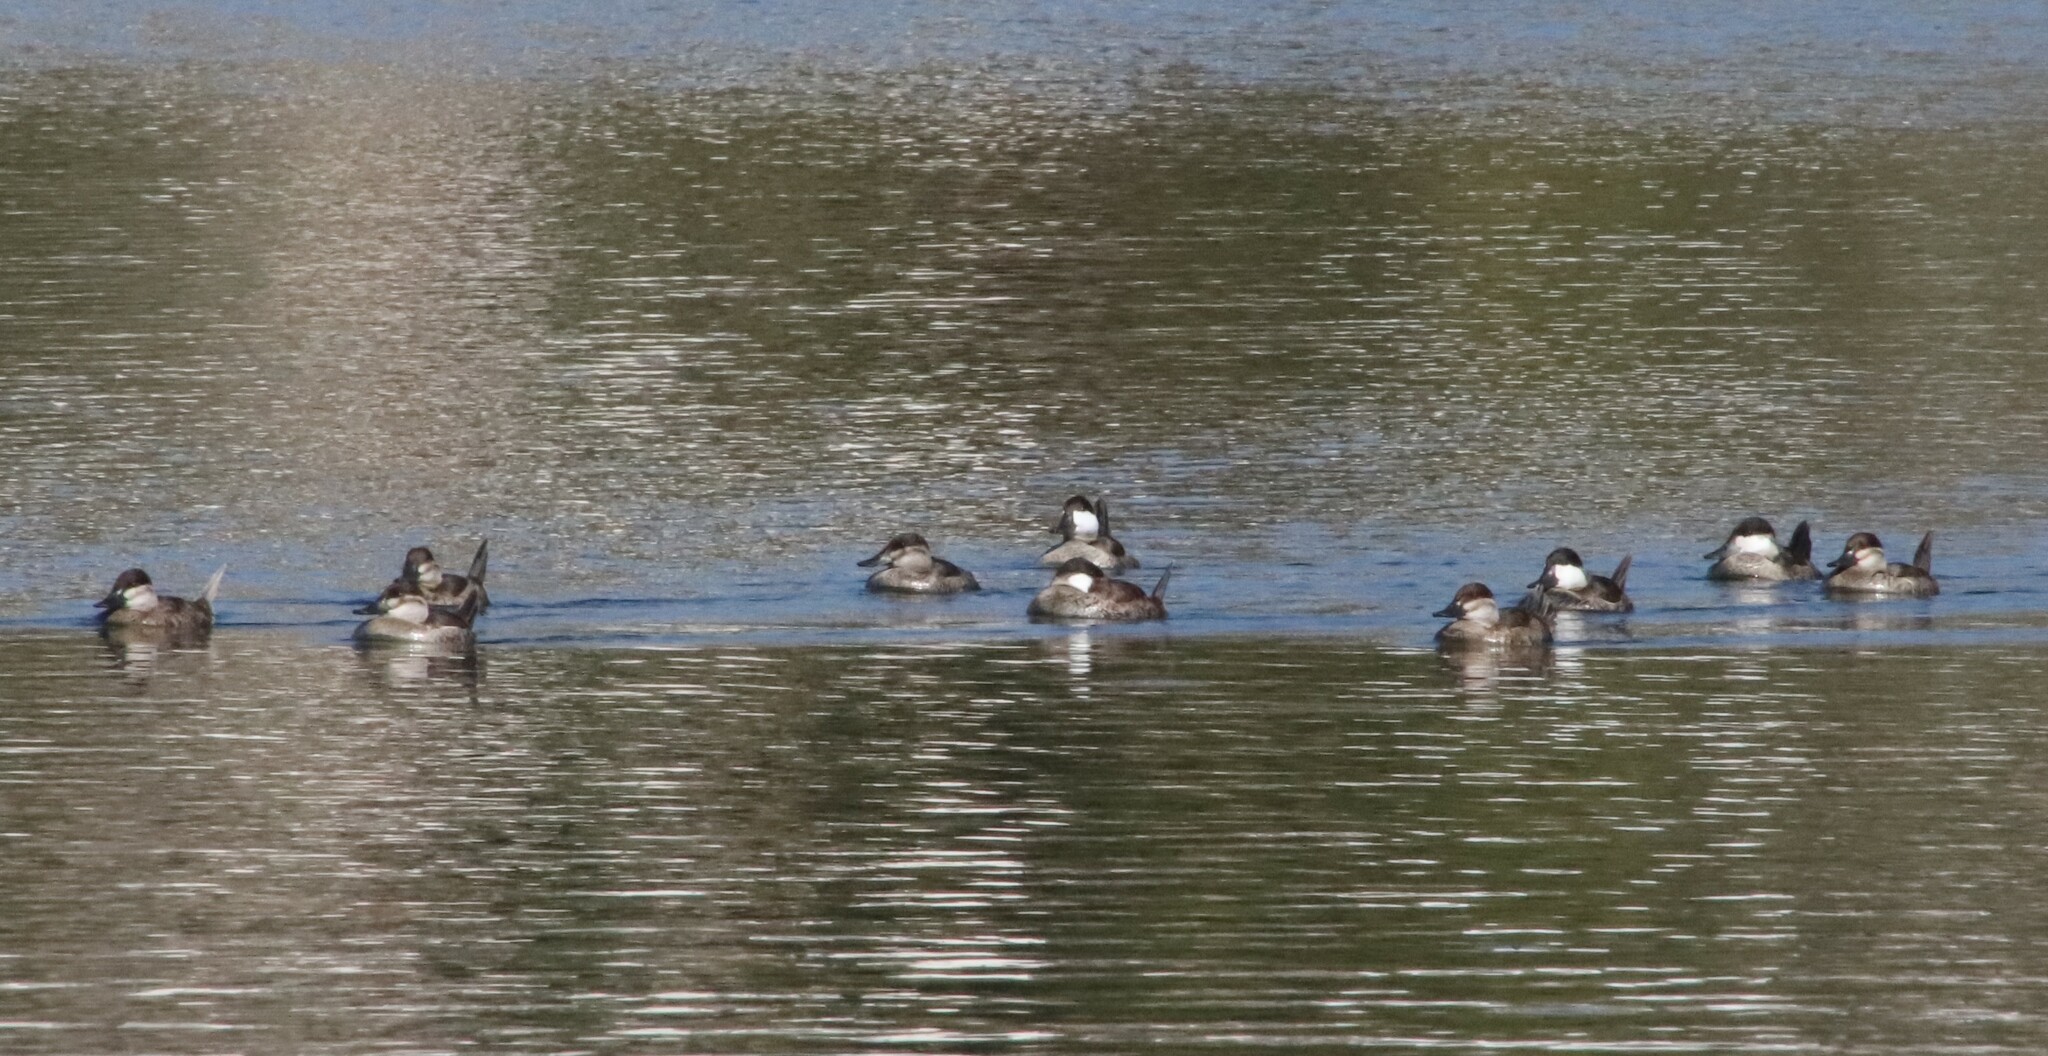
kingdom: Animalia
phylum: Chordata
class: Aves
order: Anseriformes
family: Anatidae
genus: Oxyura
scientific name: Oxyura jamaicensis
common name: Ruddy duck
